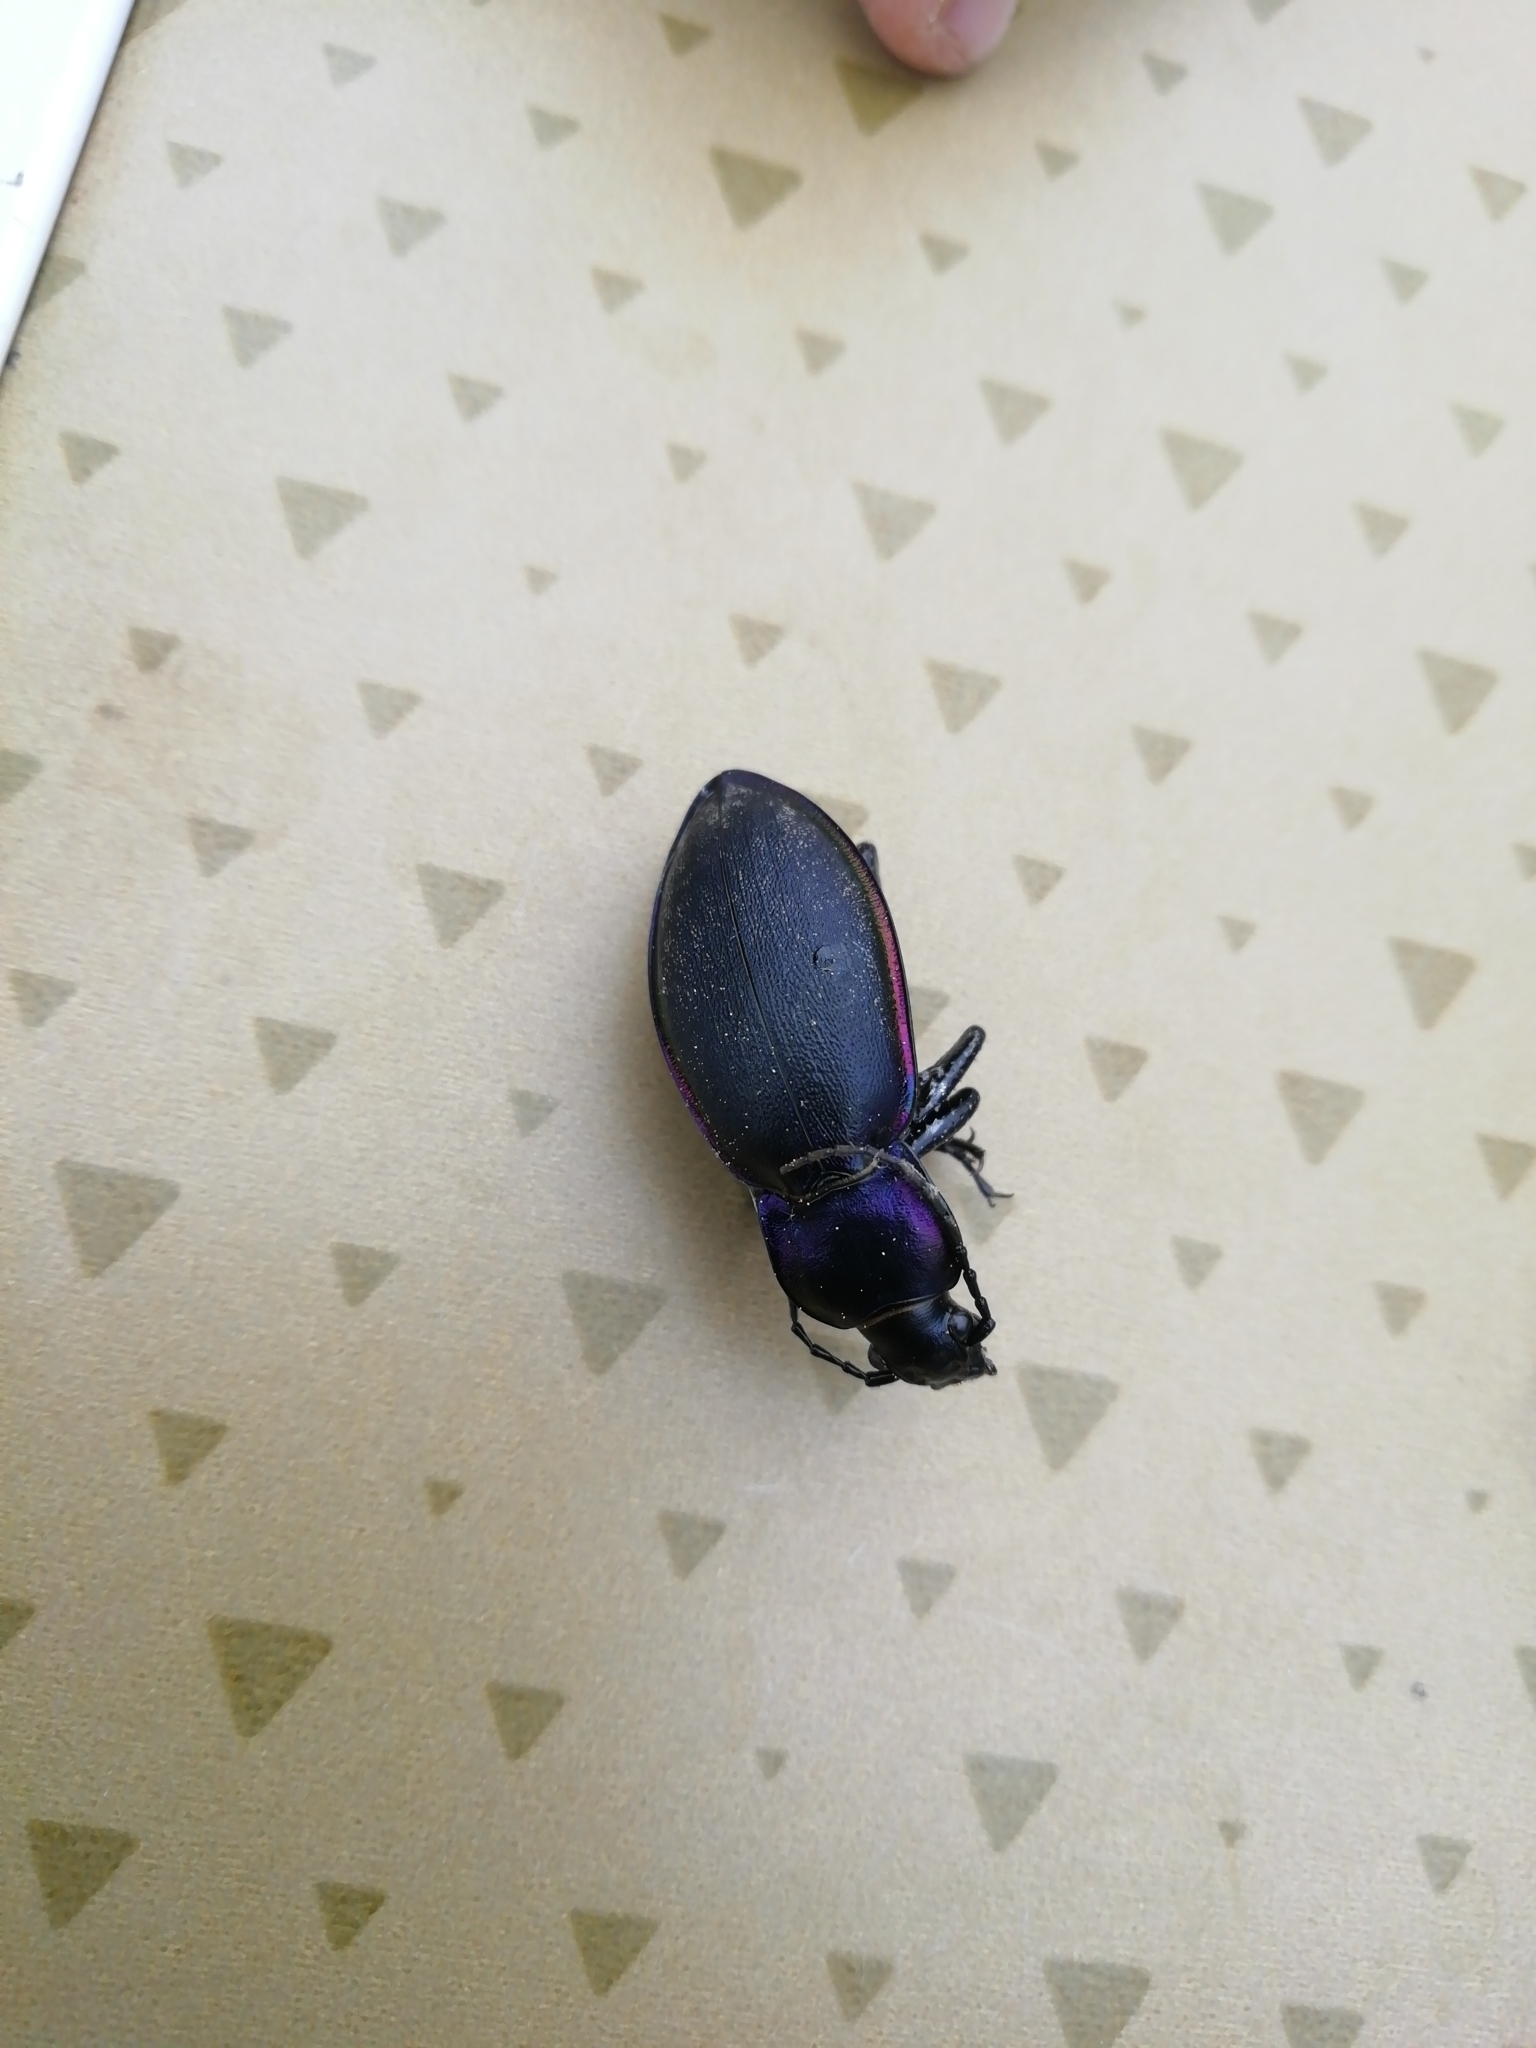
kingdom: Animalia
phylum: Arthropoda
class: Insecta
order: Coleoptera
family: Carabidae
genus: Carabus
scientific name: Carabus violaceus
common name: Violet ground beetle
